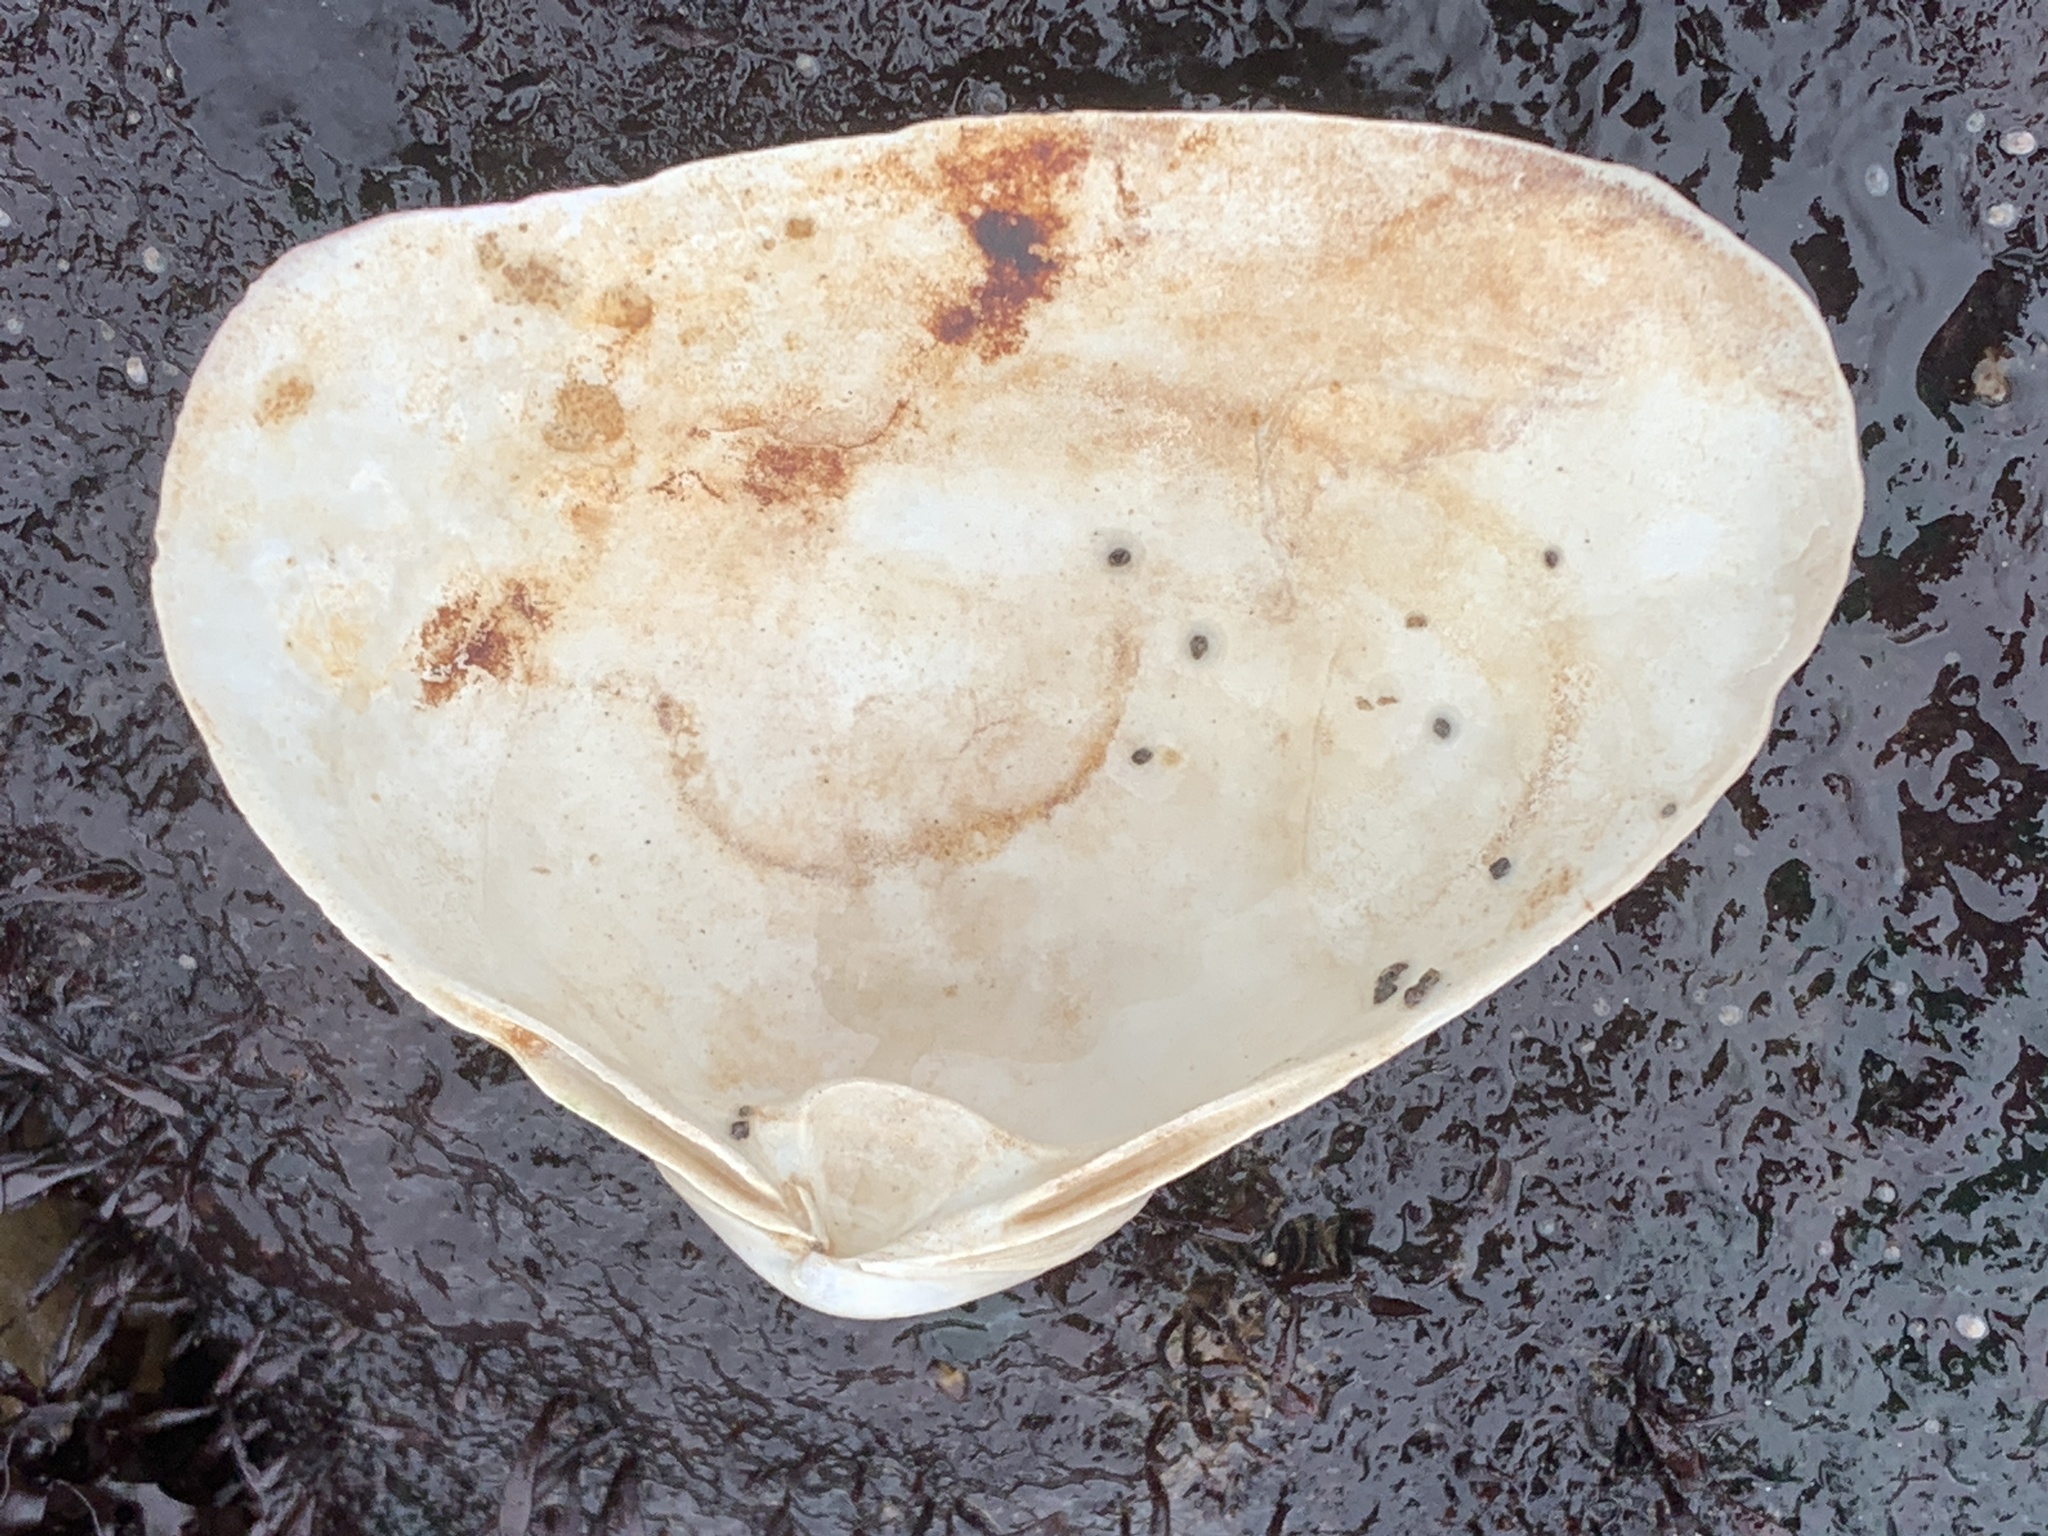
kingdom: Animalia
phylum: Mollusca
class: Bivalvia
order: Venerida
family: Mactridae
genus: Spisula
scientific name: Spisula solidissima
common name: Atlantic surf clam
